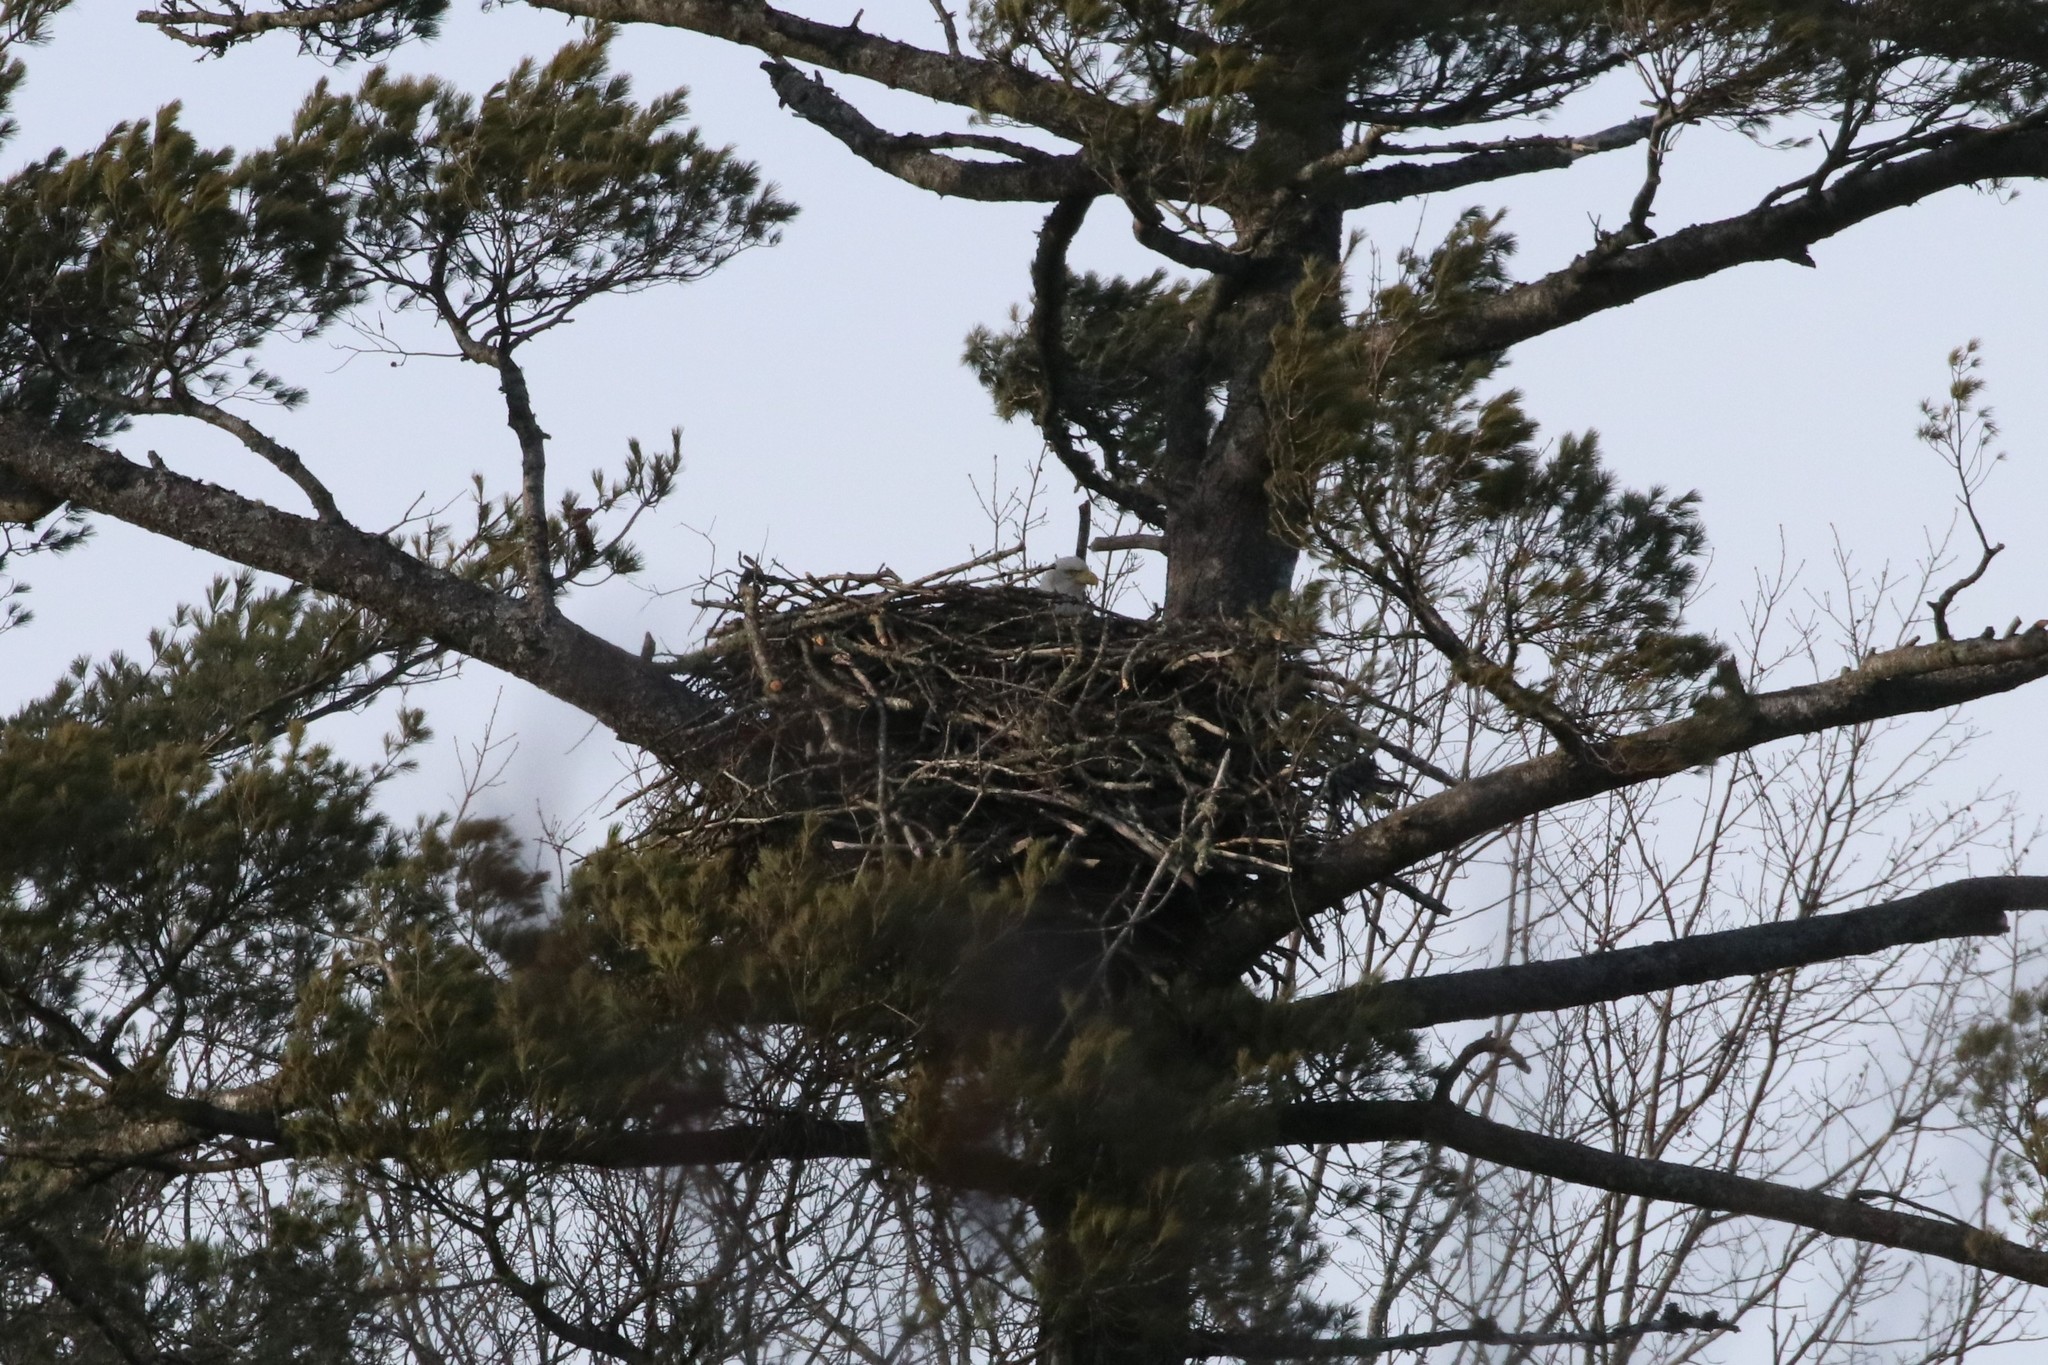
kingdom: Animalia
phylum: Chordata
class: Aves
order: Accipitriformes
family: Accipitridae
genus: Haliaeetus
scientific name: Haliaeetus leucocephalus
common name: Bald eagle
